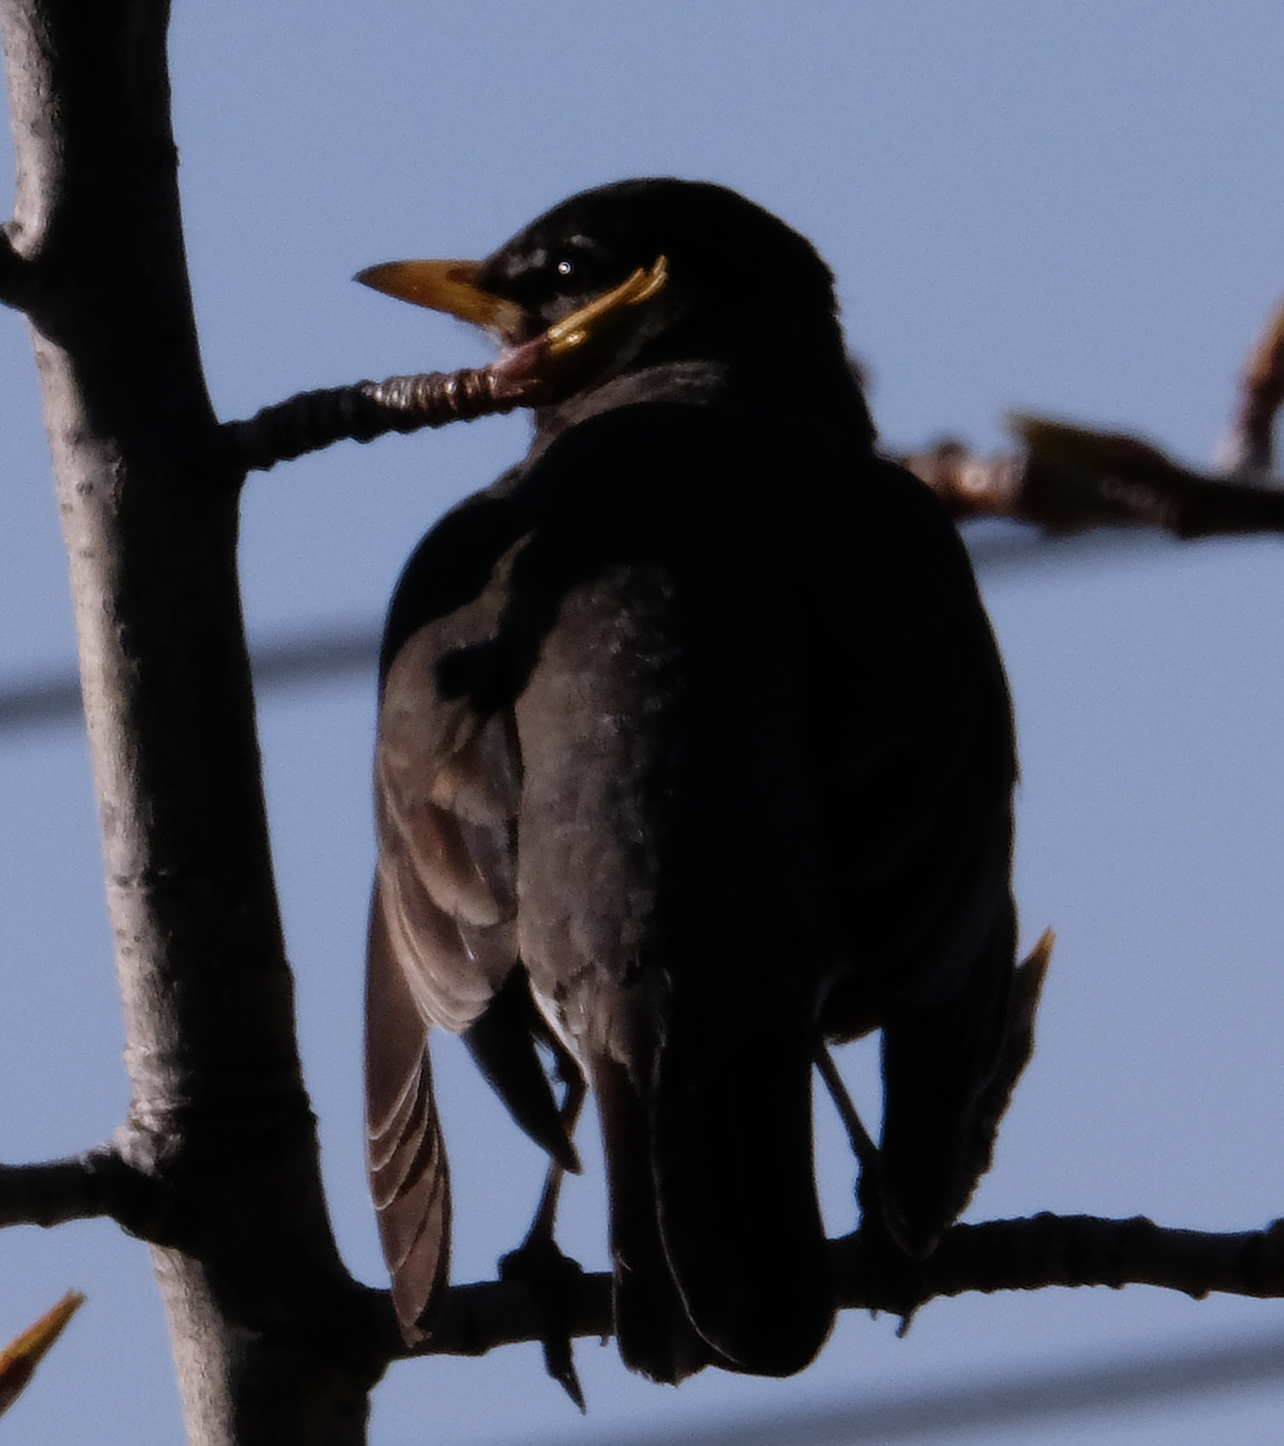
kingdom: Animalia
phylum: Chordata
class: Aves
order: Passeriformes
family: Turdidae
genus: Turdus
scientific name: Turdus migratorius
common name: American robin
